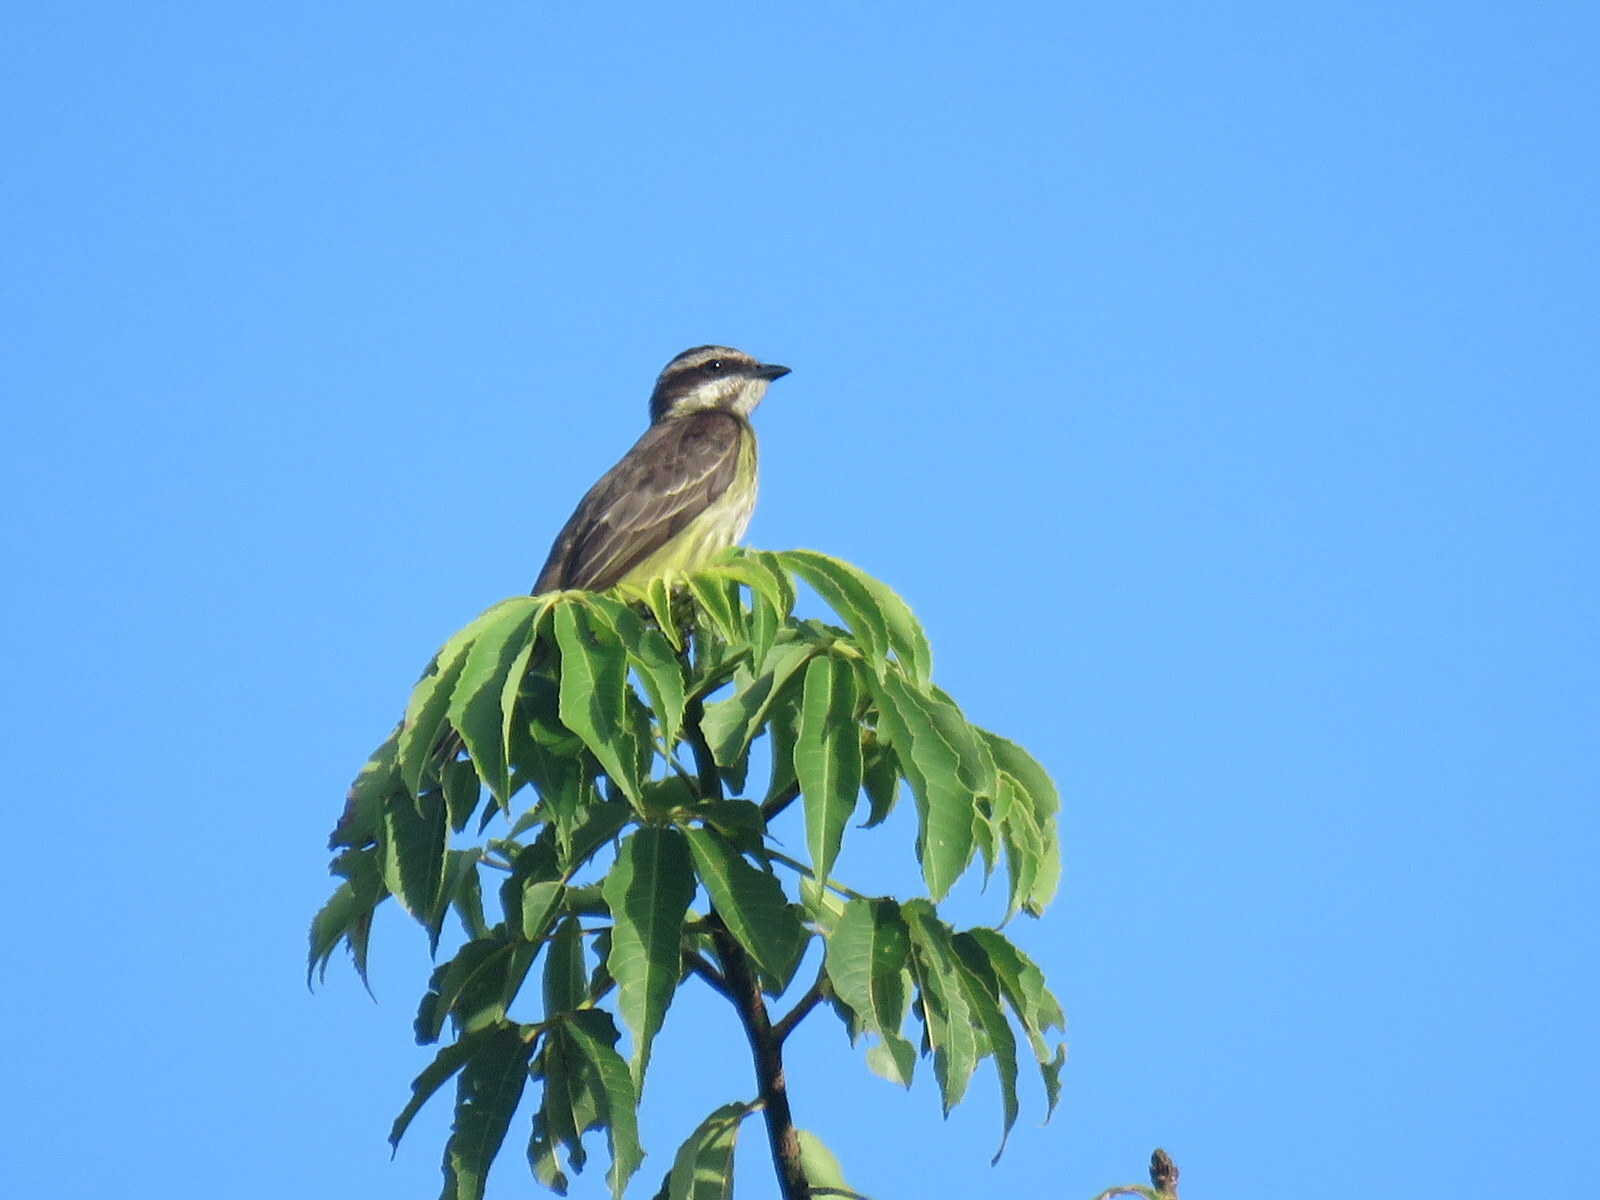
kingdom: Animalia
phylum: Chordata
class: Aves
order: Passeriformes
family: Tyrannidae
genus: Legatus
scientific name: Legatus leucophaius
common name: Piratic flycatcher
